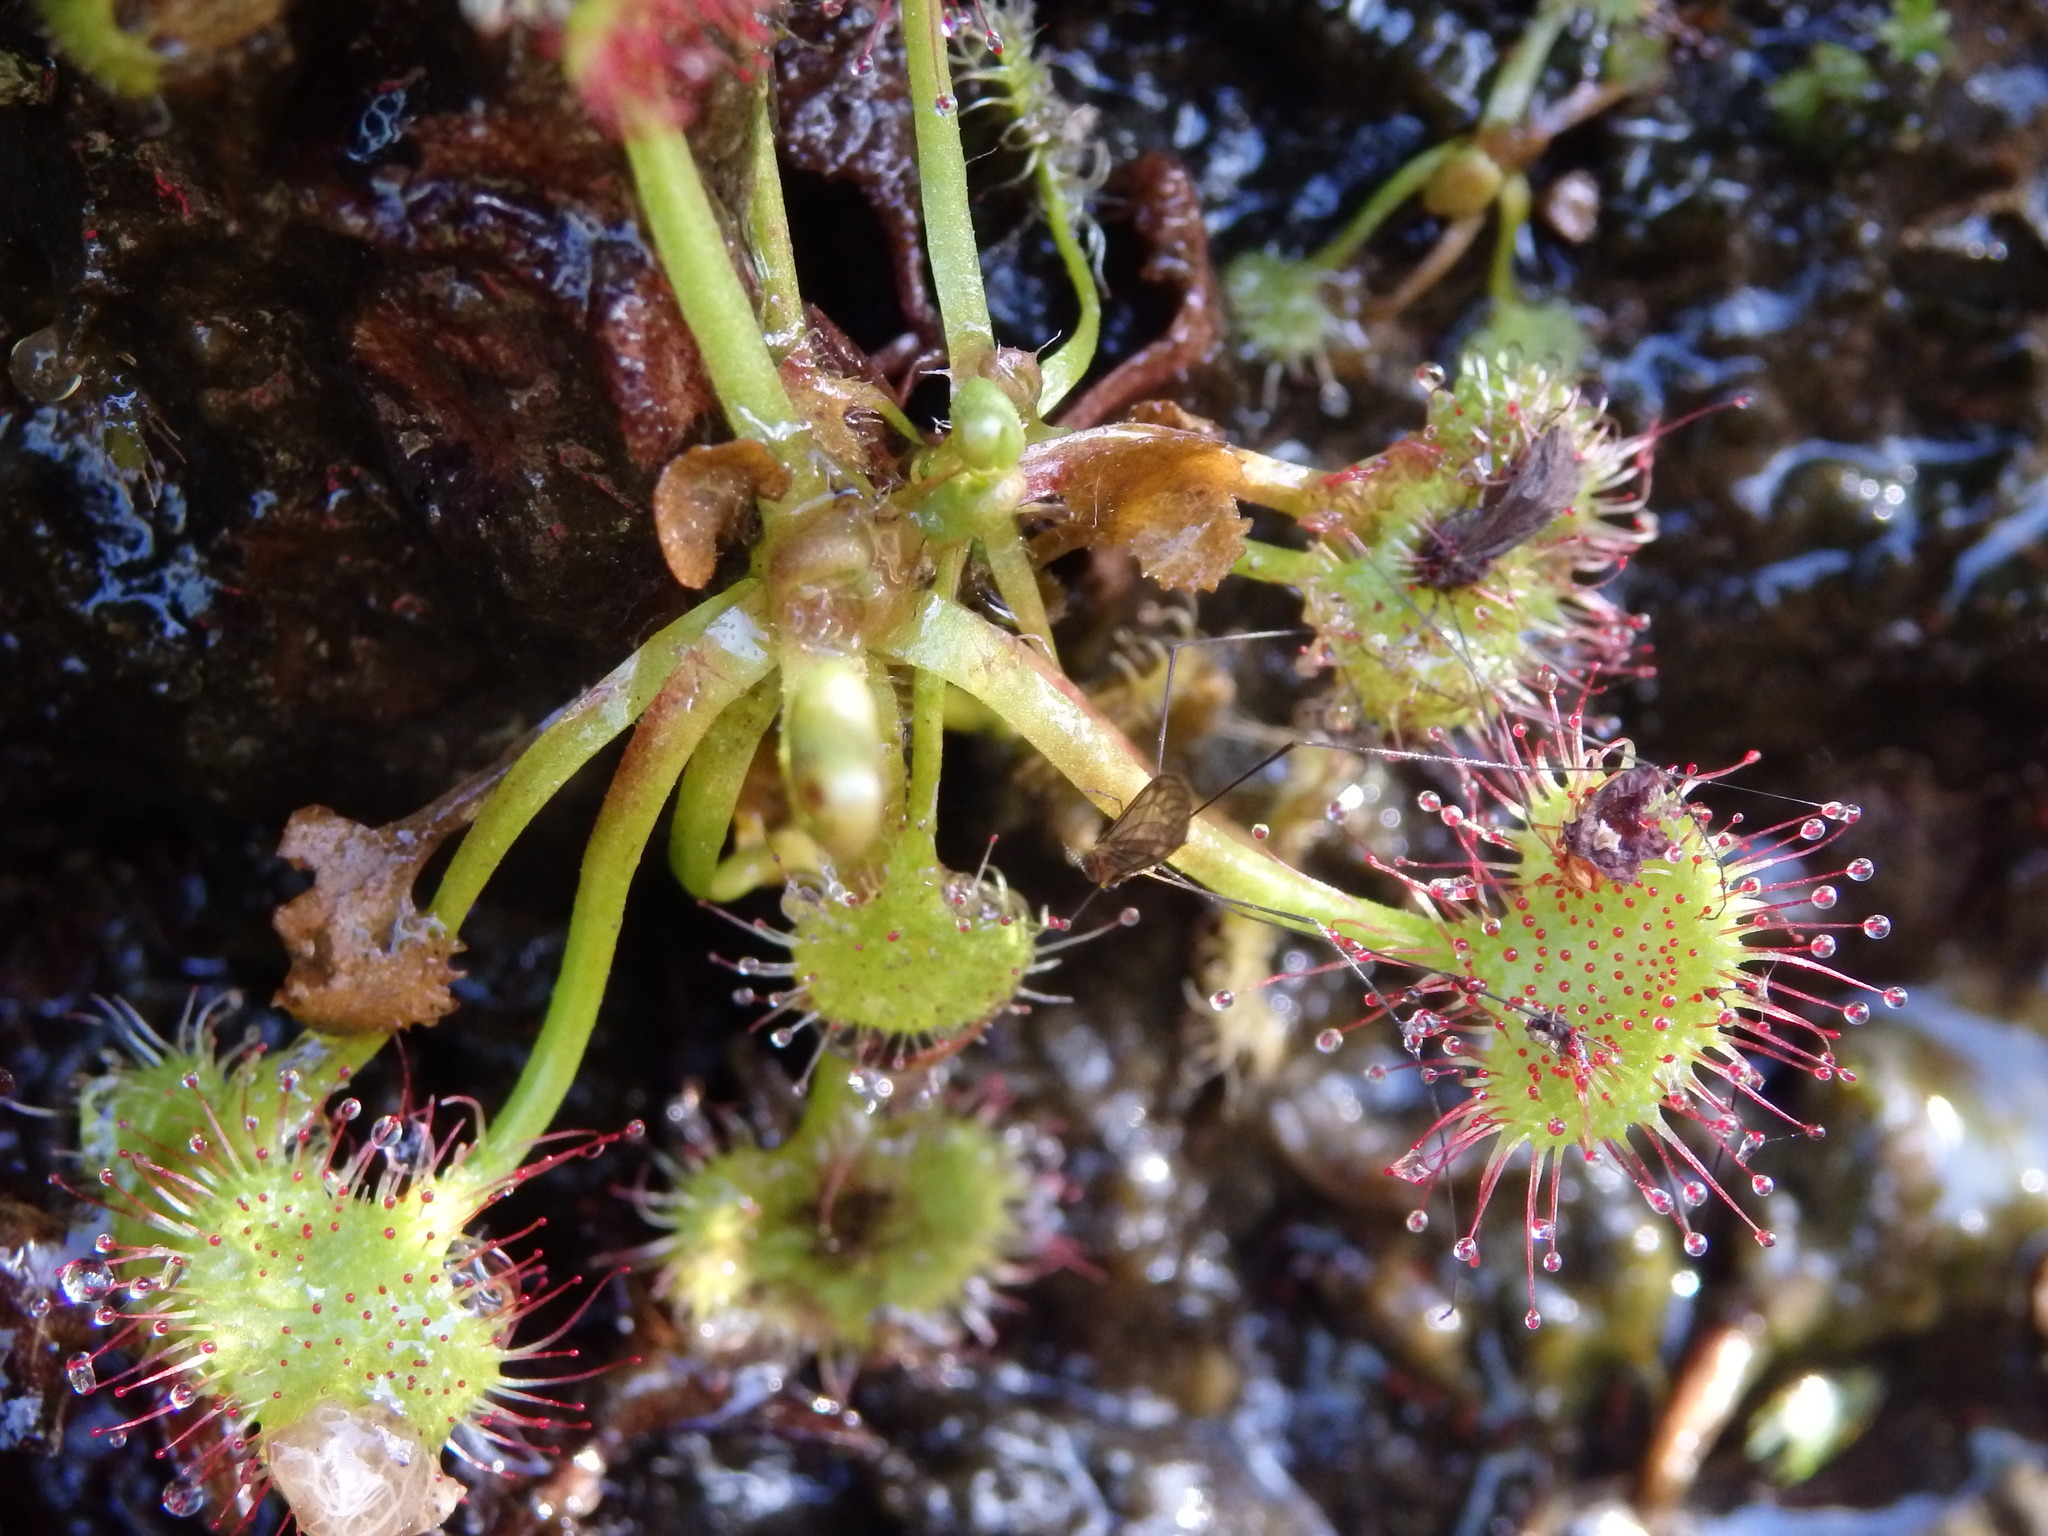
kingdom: Plantae
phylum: Tracheophyta
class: Magnoliopsida
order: Caryophyllales
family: Droseraceae
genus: Drosera
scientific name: Drosera rotundifolia
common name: Round-leaved sundew
